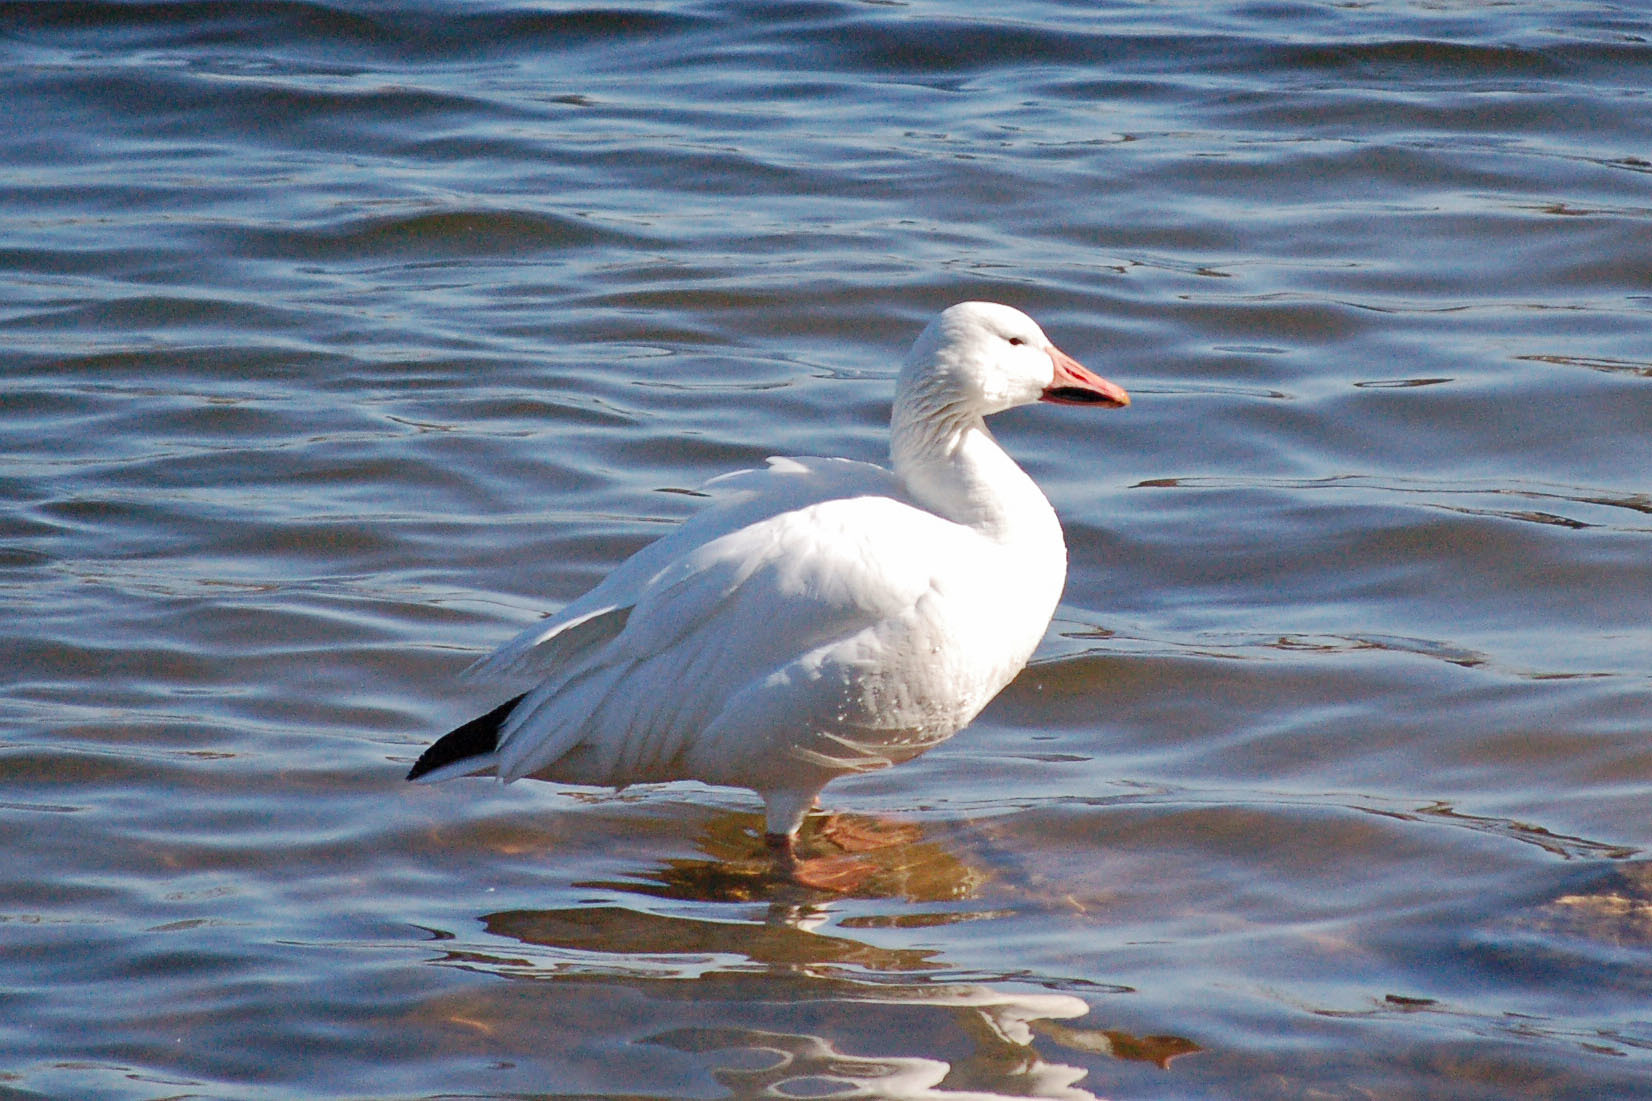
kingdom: Animalia
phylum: Chordata
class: Aves
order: Anseriformes
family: Anatidae
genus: Anser
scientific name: Anser caerulescens
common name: Snow goose
